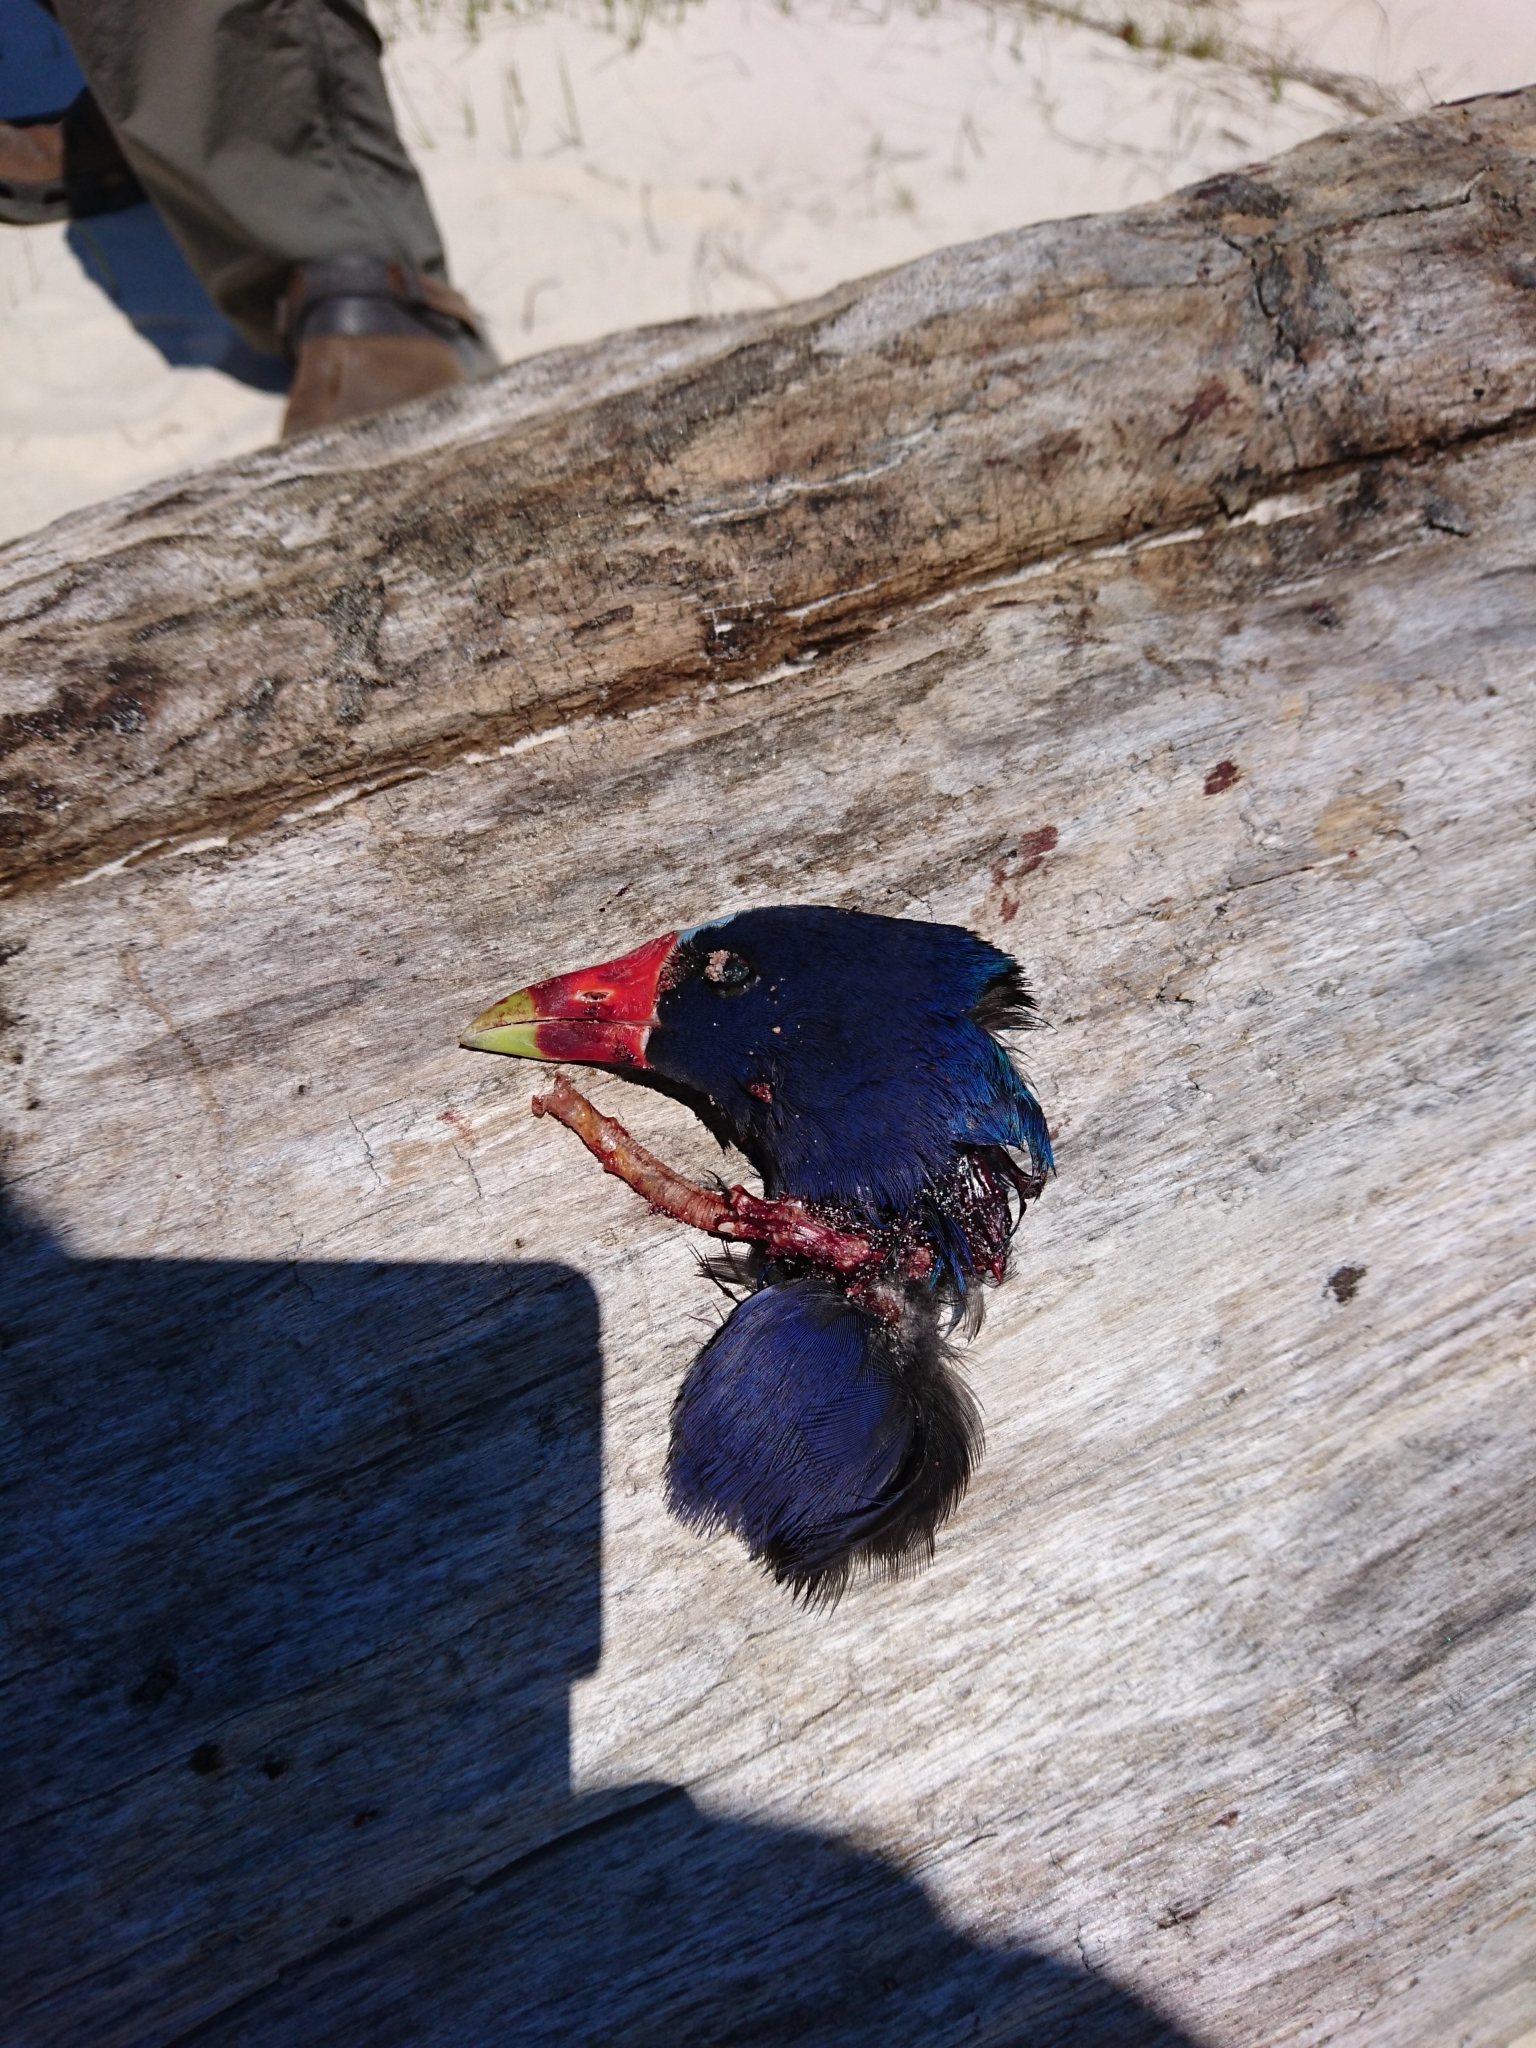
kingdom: Animalia
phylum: Chordata
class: Aves
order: Gruiformes
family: Rallidae
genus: Porphyrio
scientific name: Porphyrio martinica
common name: Purple gallinule
